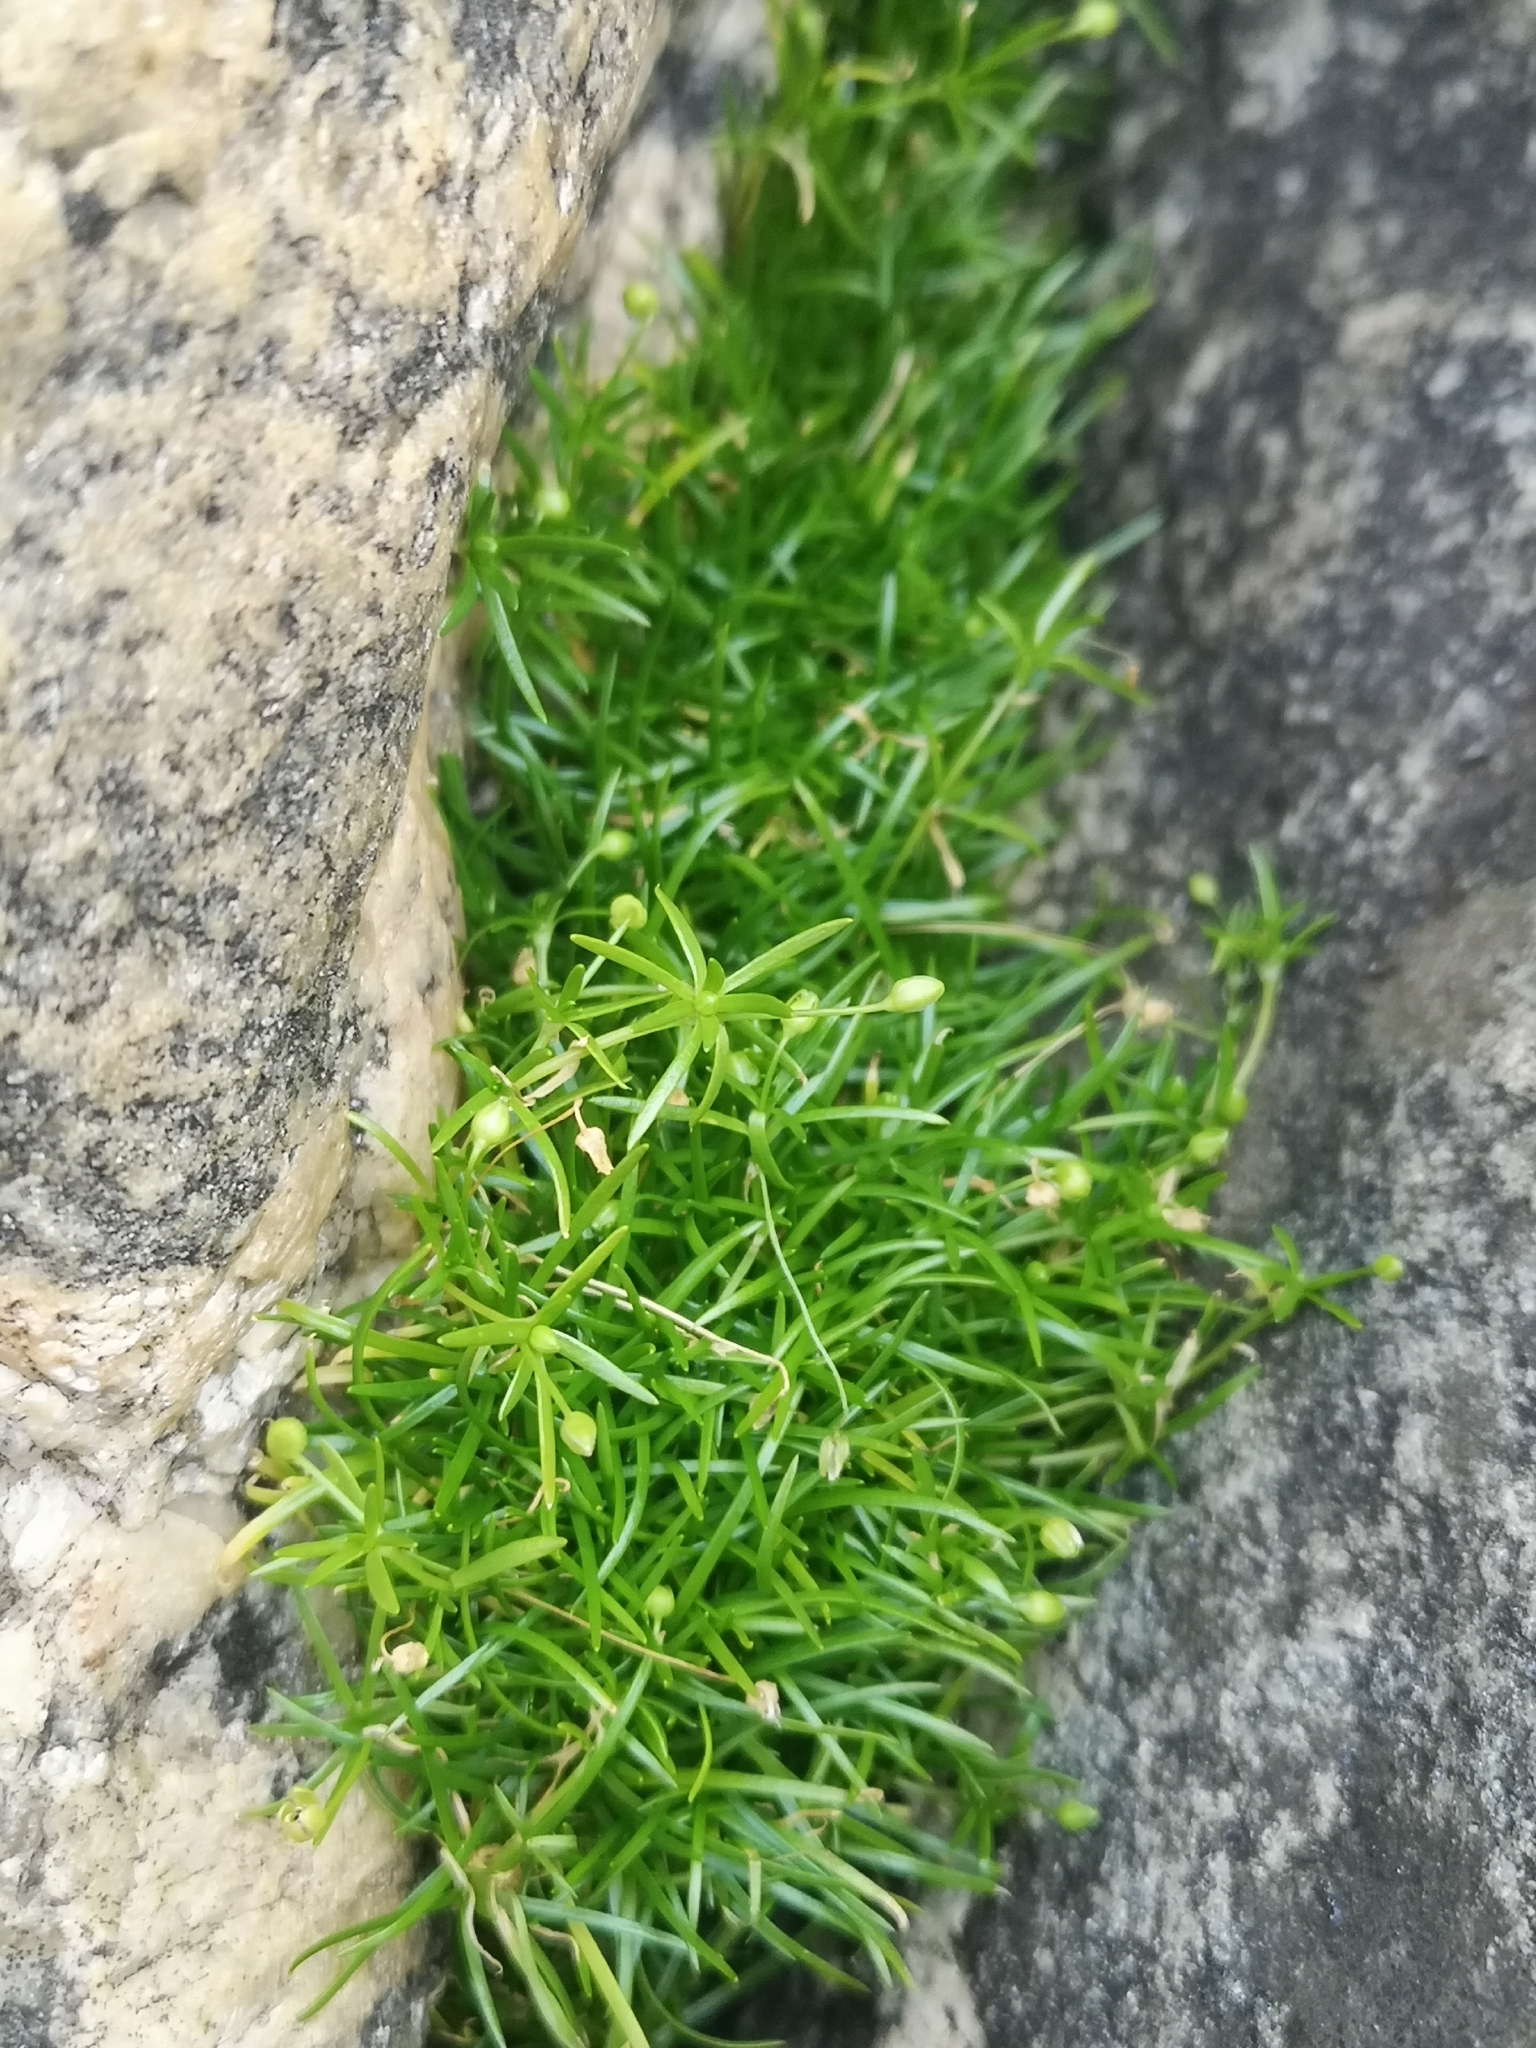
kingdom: Plantae
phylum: Tracheophyta
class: Magnoliopsida
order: Caryophyllales
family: Caryophyllaceae
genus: Sagina
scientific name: Sagina procumbens
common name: Procumbent pearlwort
